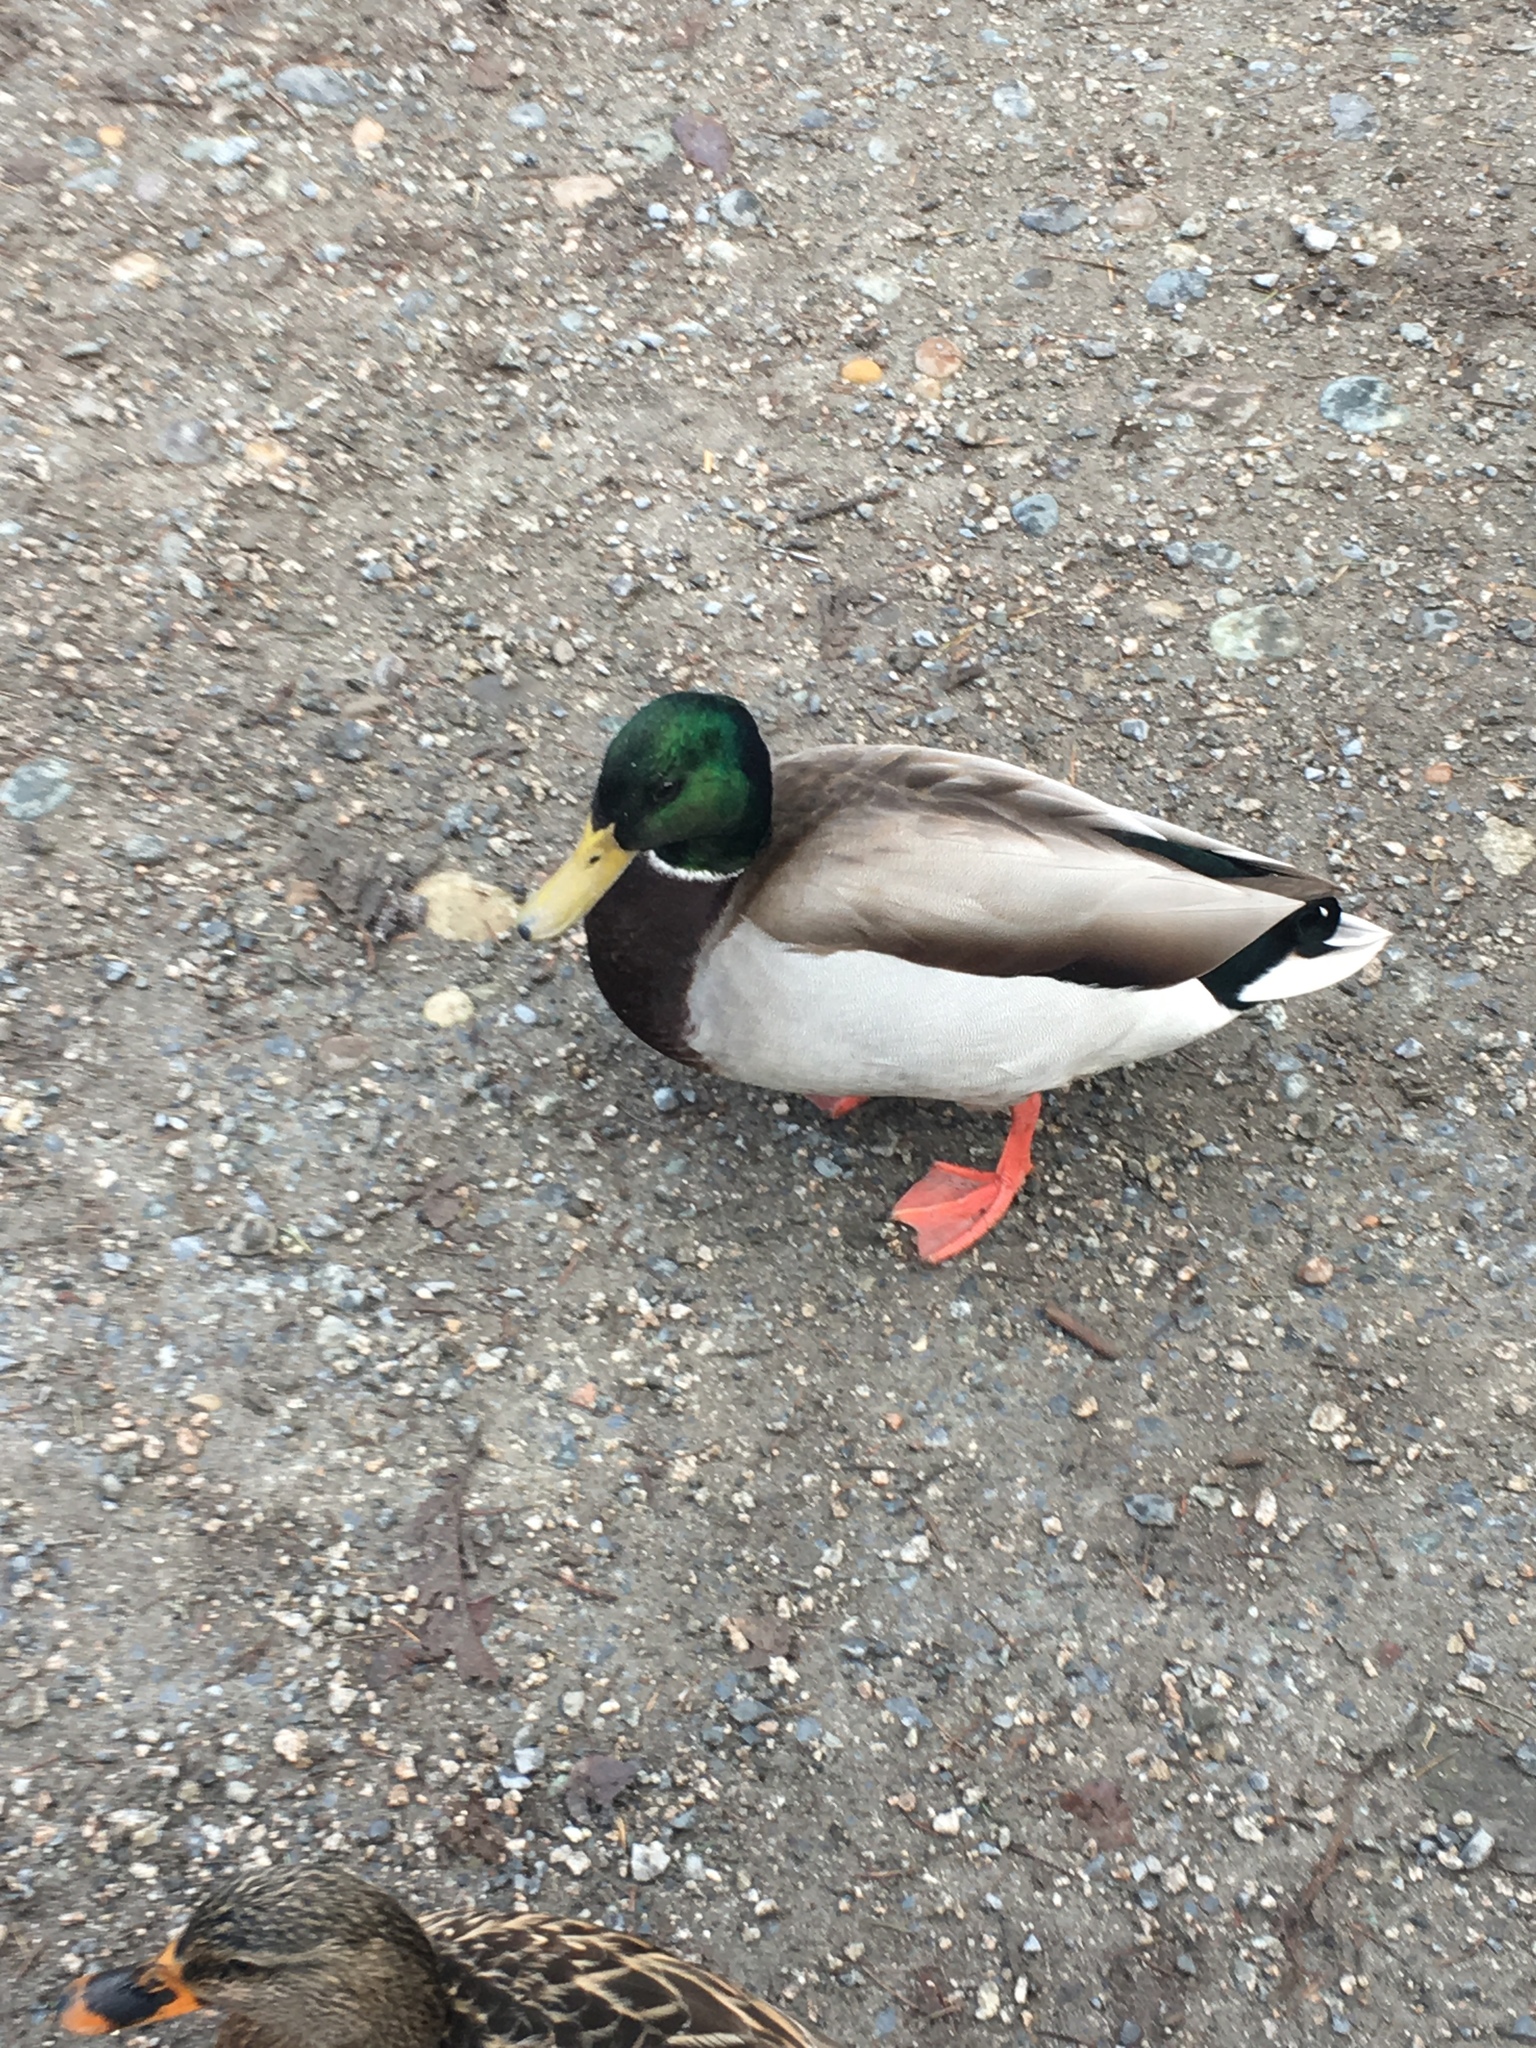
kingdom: Animalia
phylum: Chordata
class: Aves
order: Anseriformes
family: Anatidae
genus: Anas
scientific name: Anas platyrhynchos
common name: Mallard
